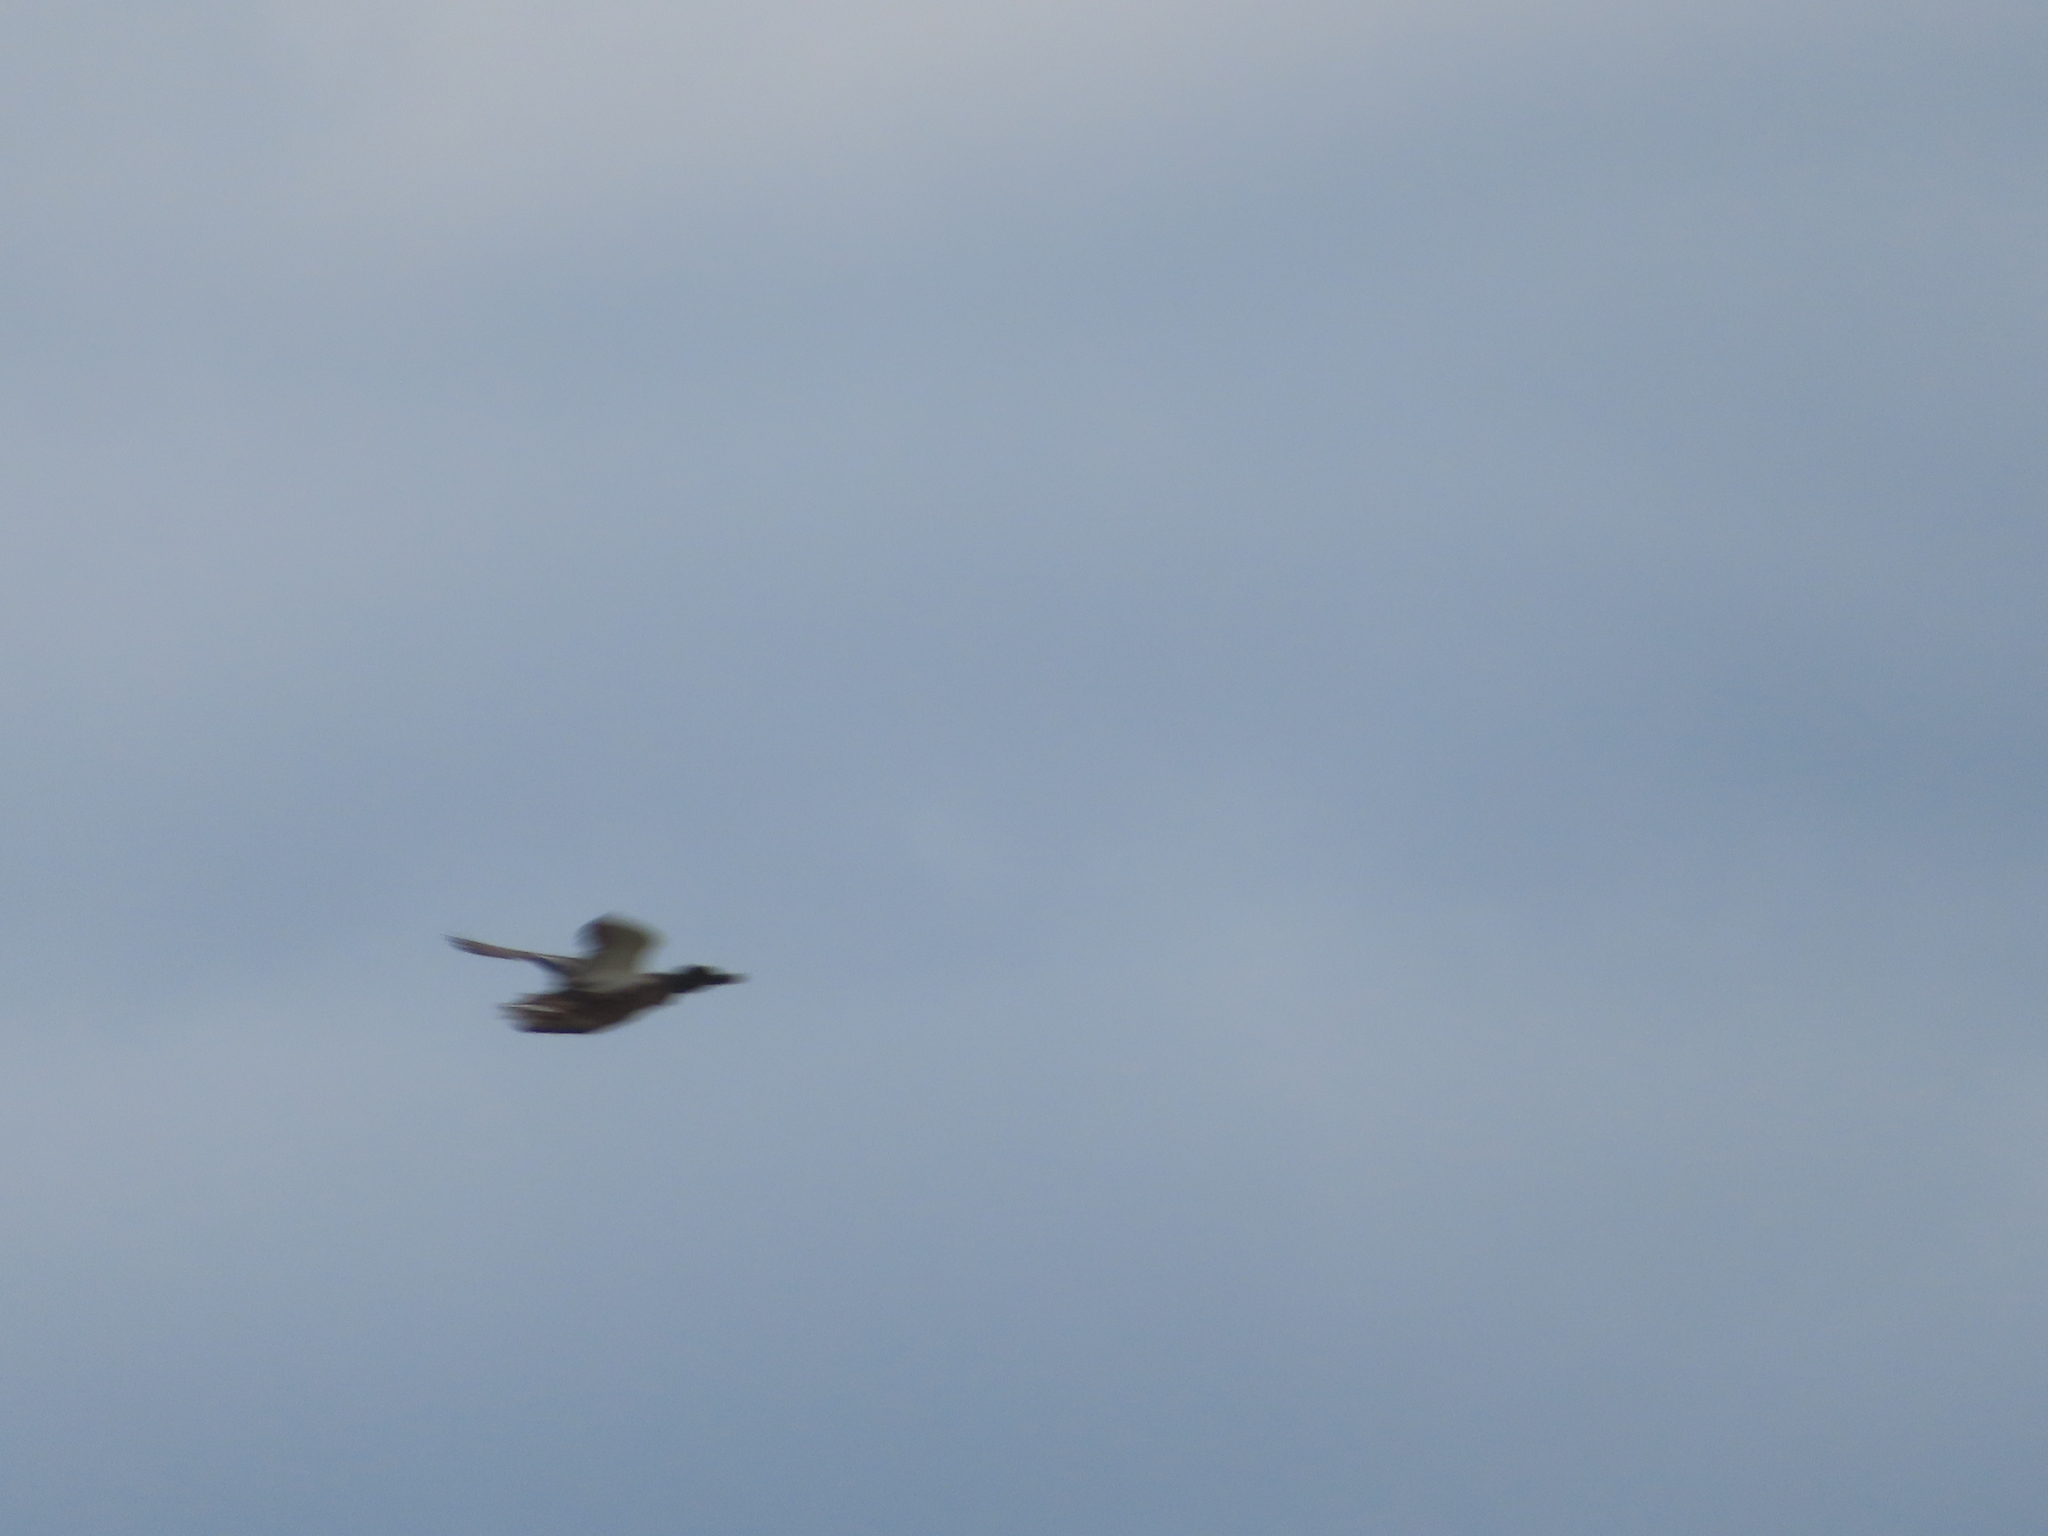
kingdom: Animalia
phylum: Chordata
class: Aves
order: Anseriformes
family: Anatidae
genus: Anas
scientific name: Anas platyrhynchos
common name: Mallard
